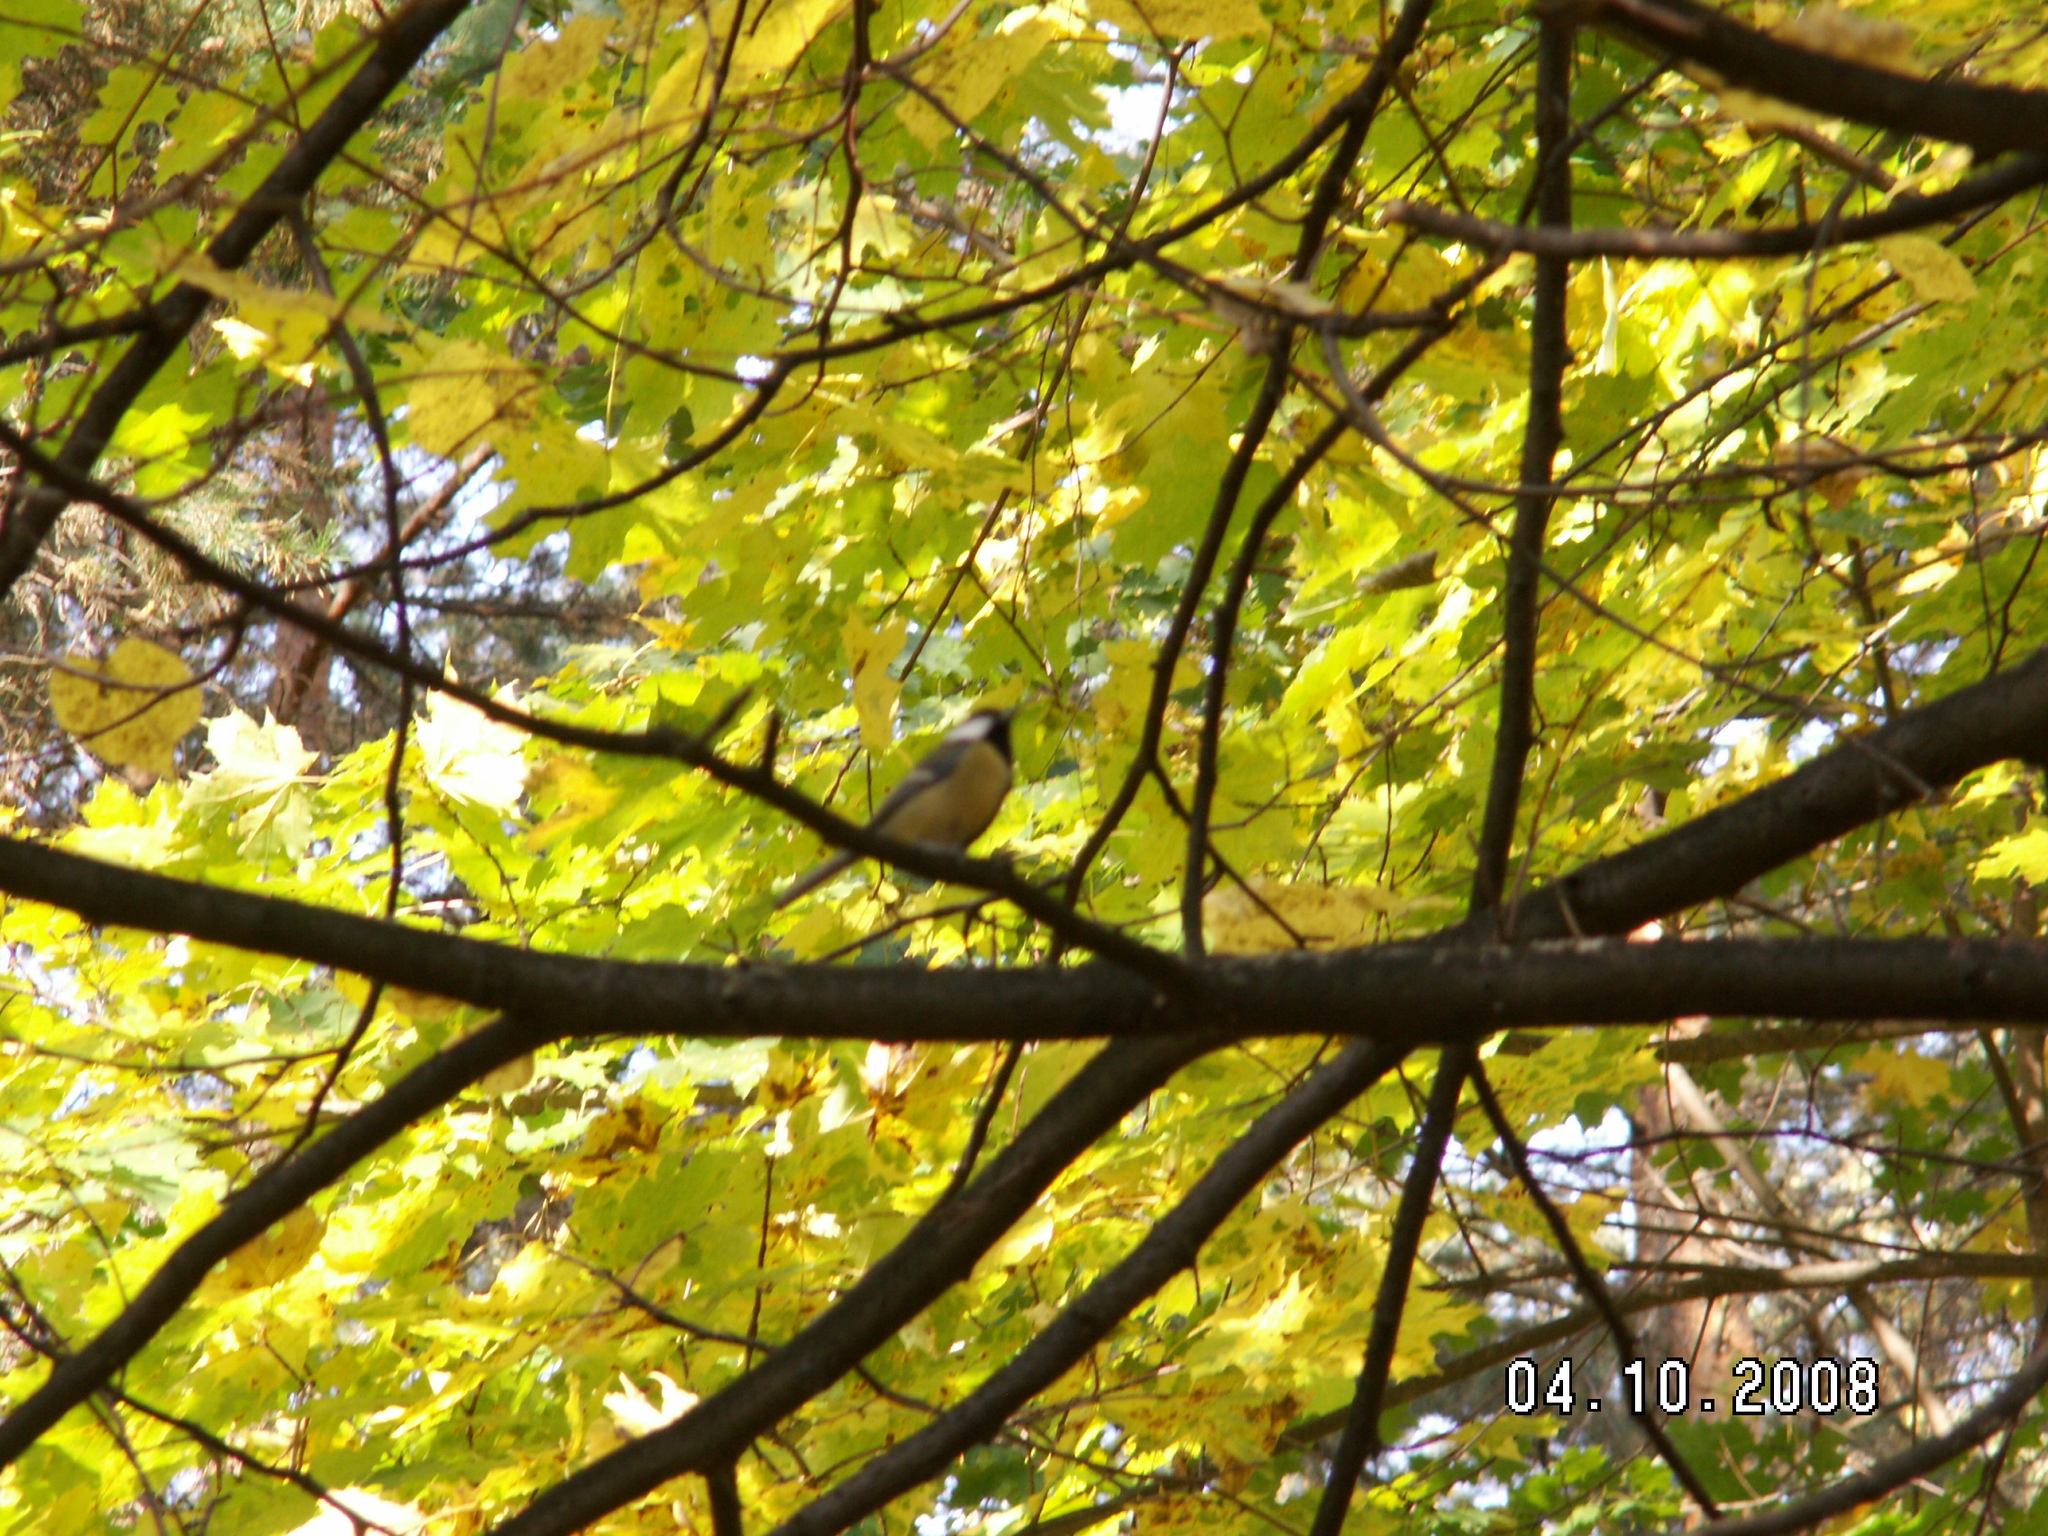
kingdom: Animalia
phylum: Chordata
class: Aves
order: Passeriformes
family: Paridae
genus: Parus
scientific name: Parus major
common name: Great tit
